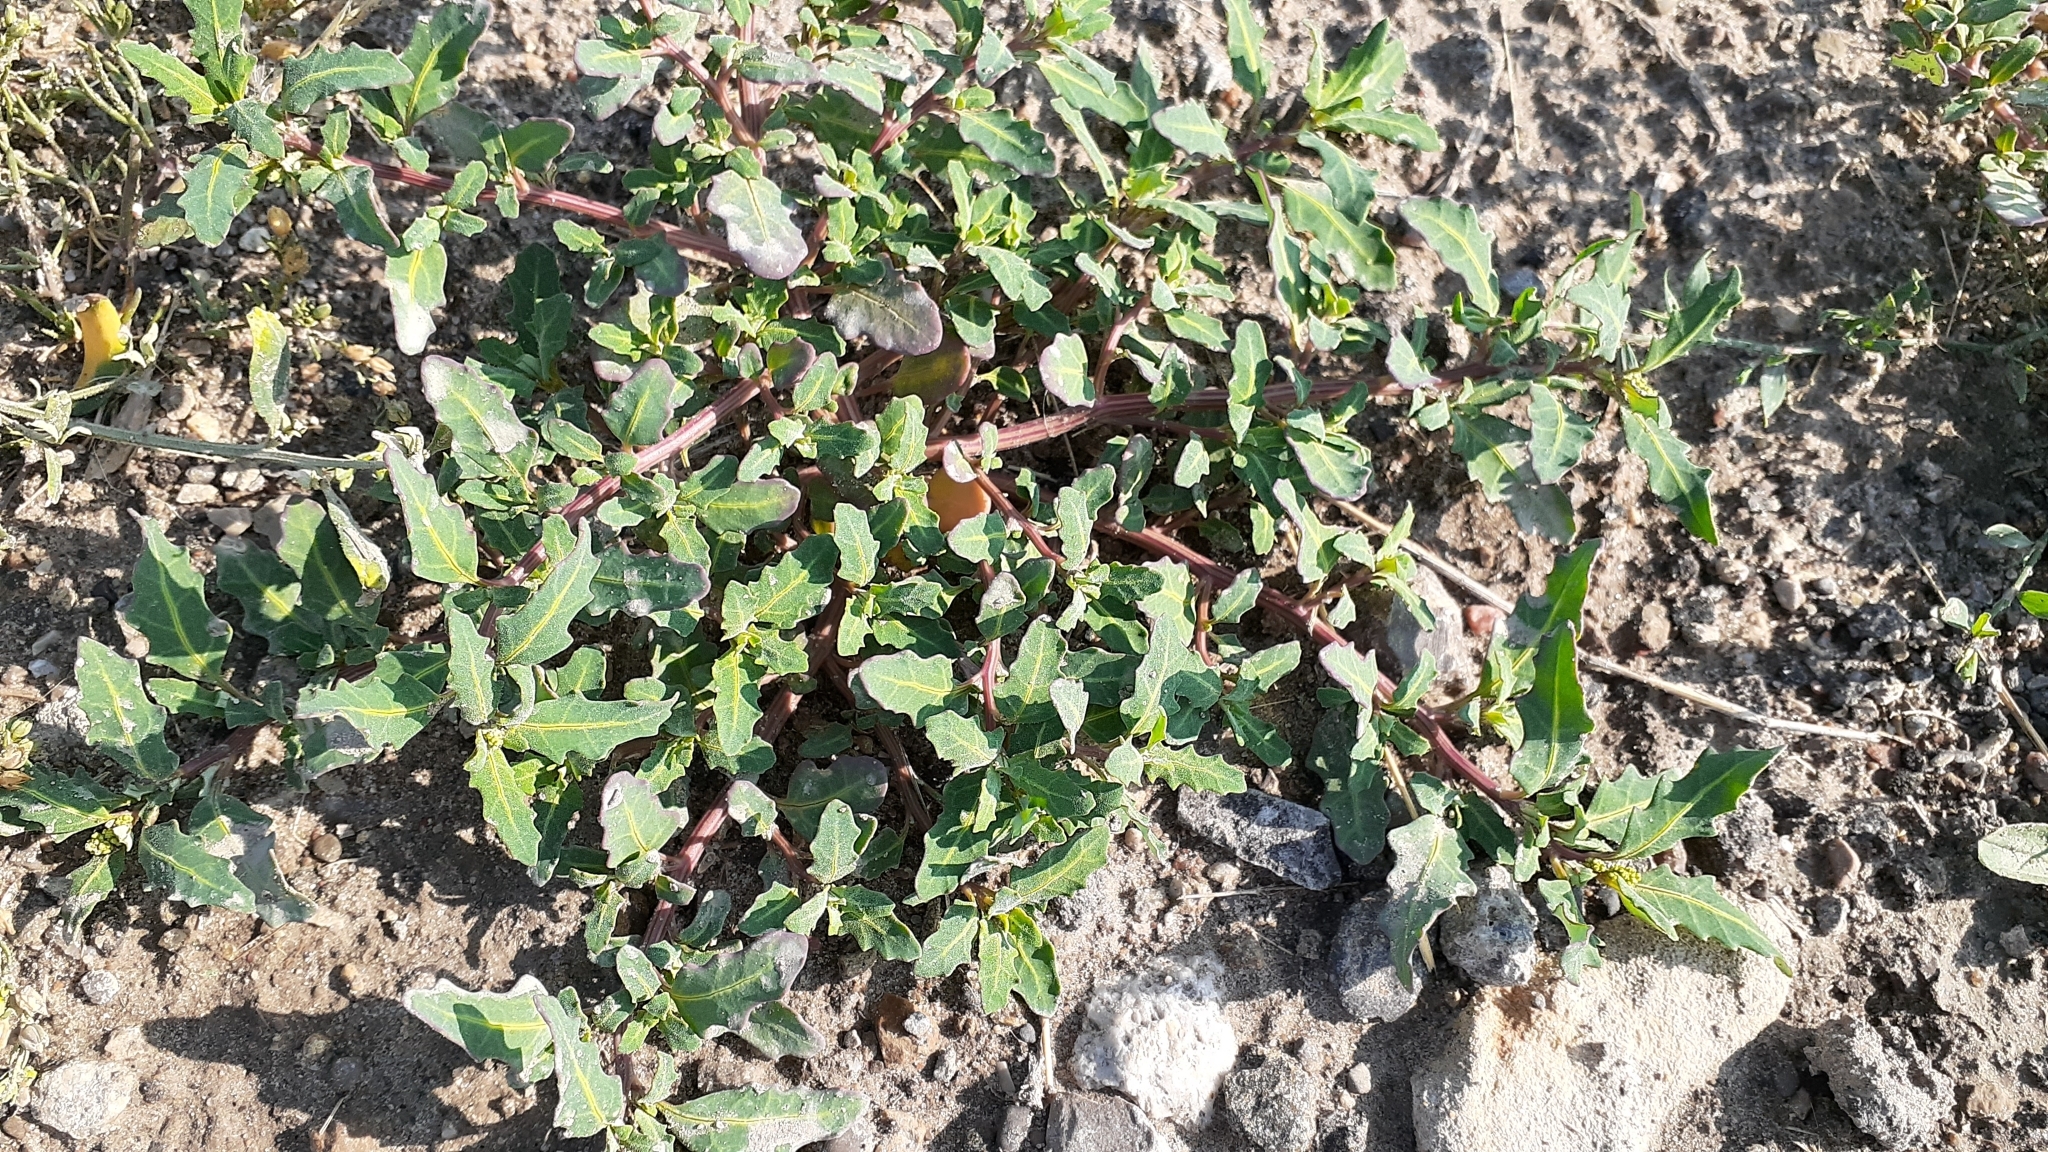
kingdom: Plantae
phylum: Tracheophyta
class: Magnoliopsida
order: Caryophyllales
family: Amaranthaceae
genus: Oxybasis
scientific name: Oxybasis glauca
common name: Glaucous goosefoot
